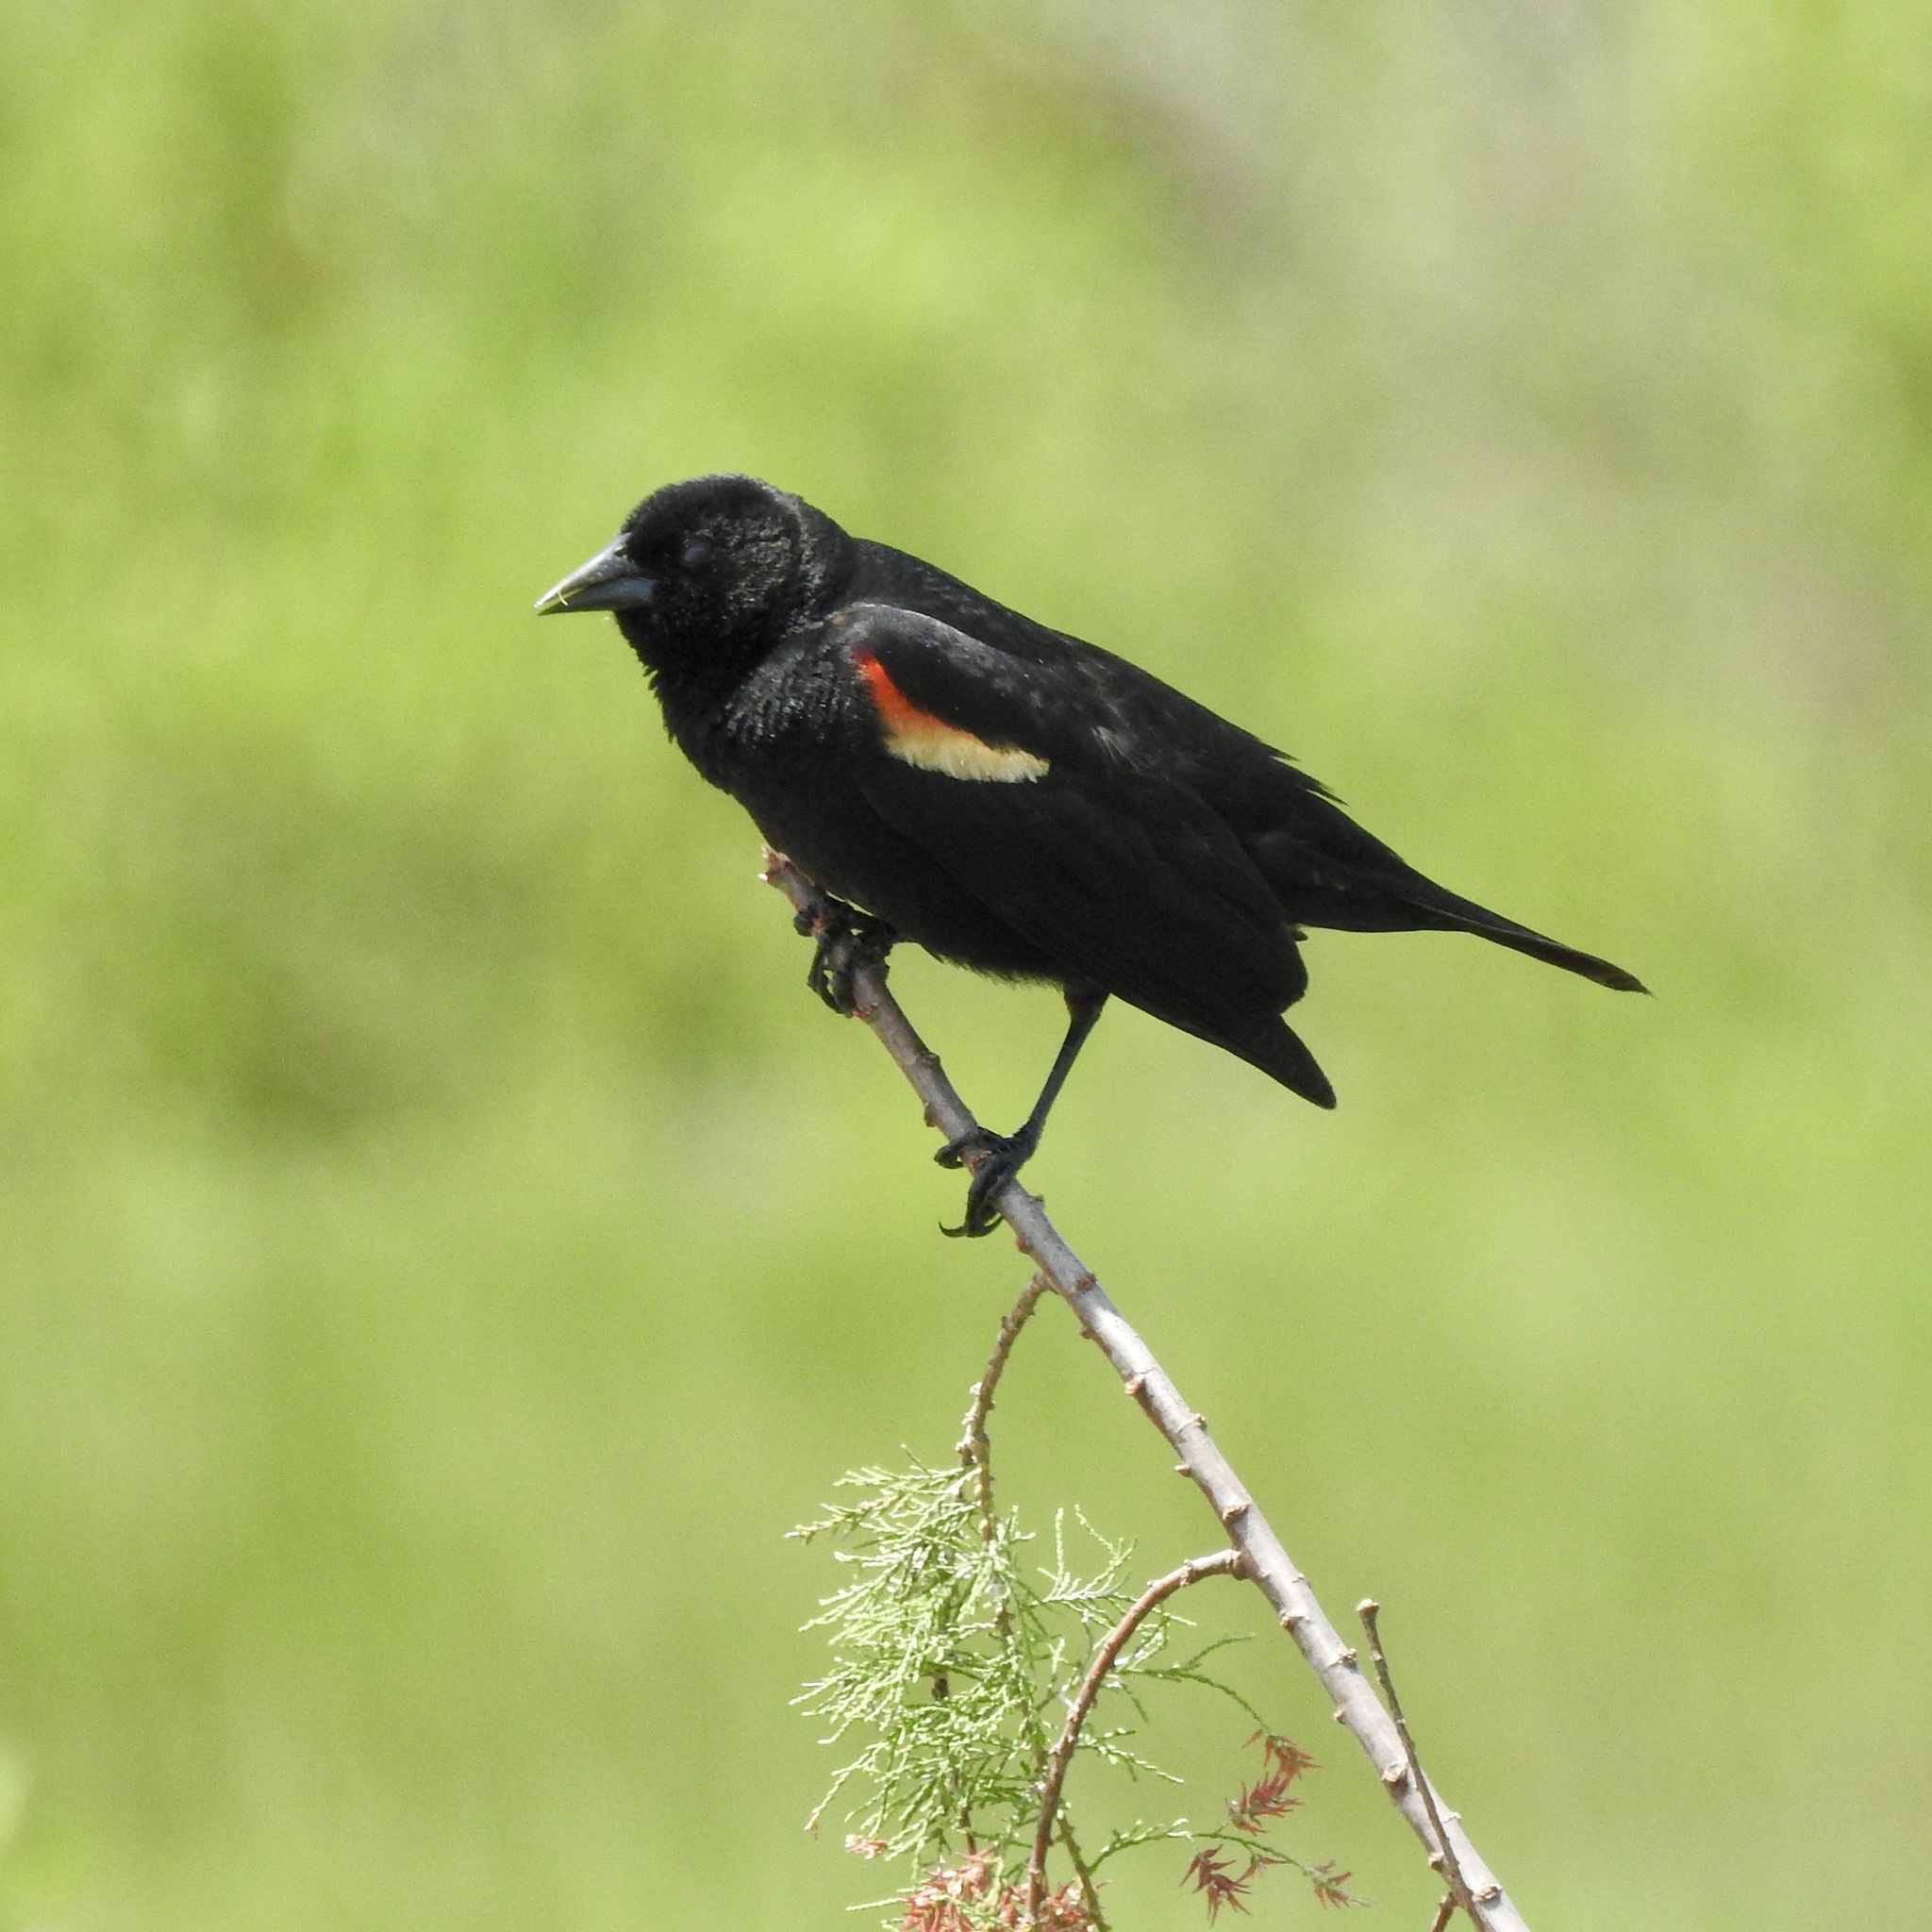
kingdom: Animalia
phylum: Chordata
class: Aves
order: Passeriformes
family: Icteridae
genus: Agelaius
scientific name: Agelaius phoeniceus
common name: Red-winged blackbird
